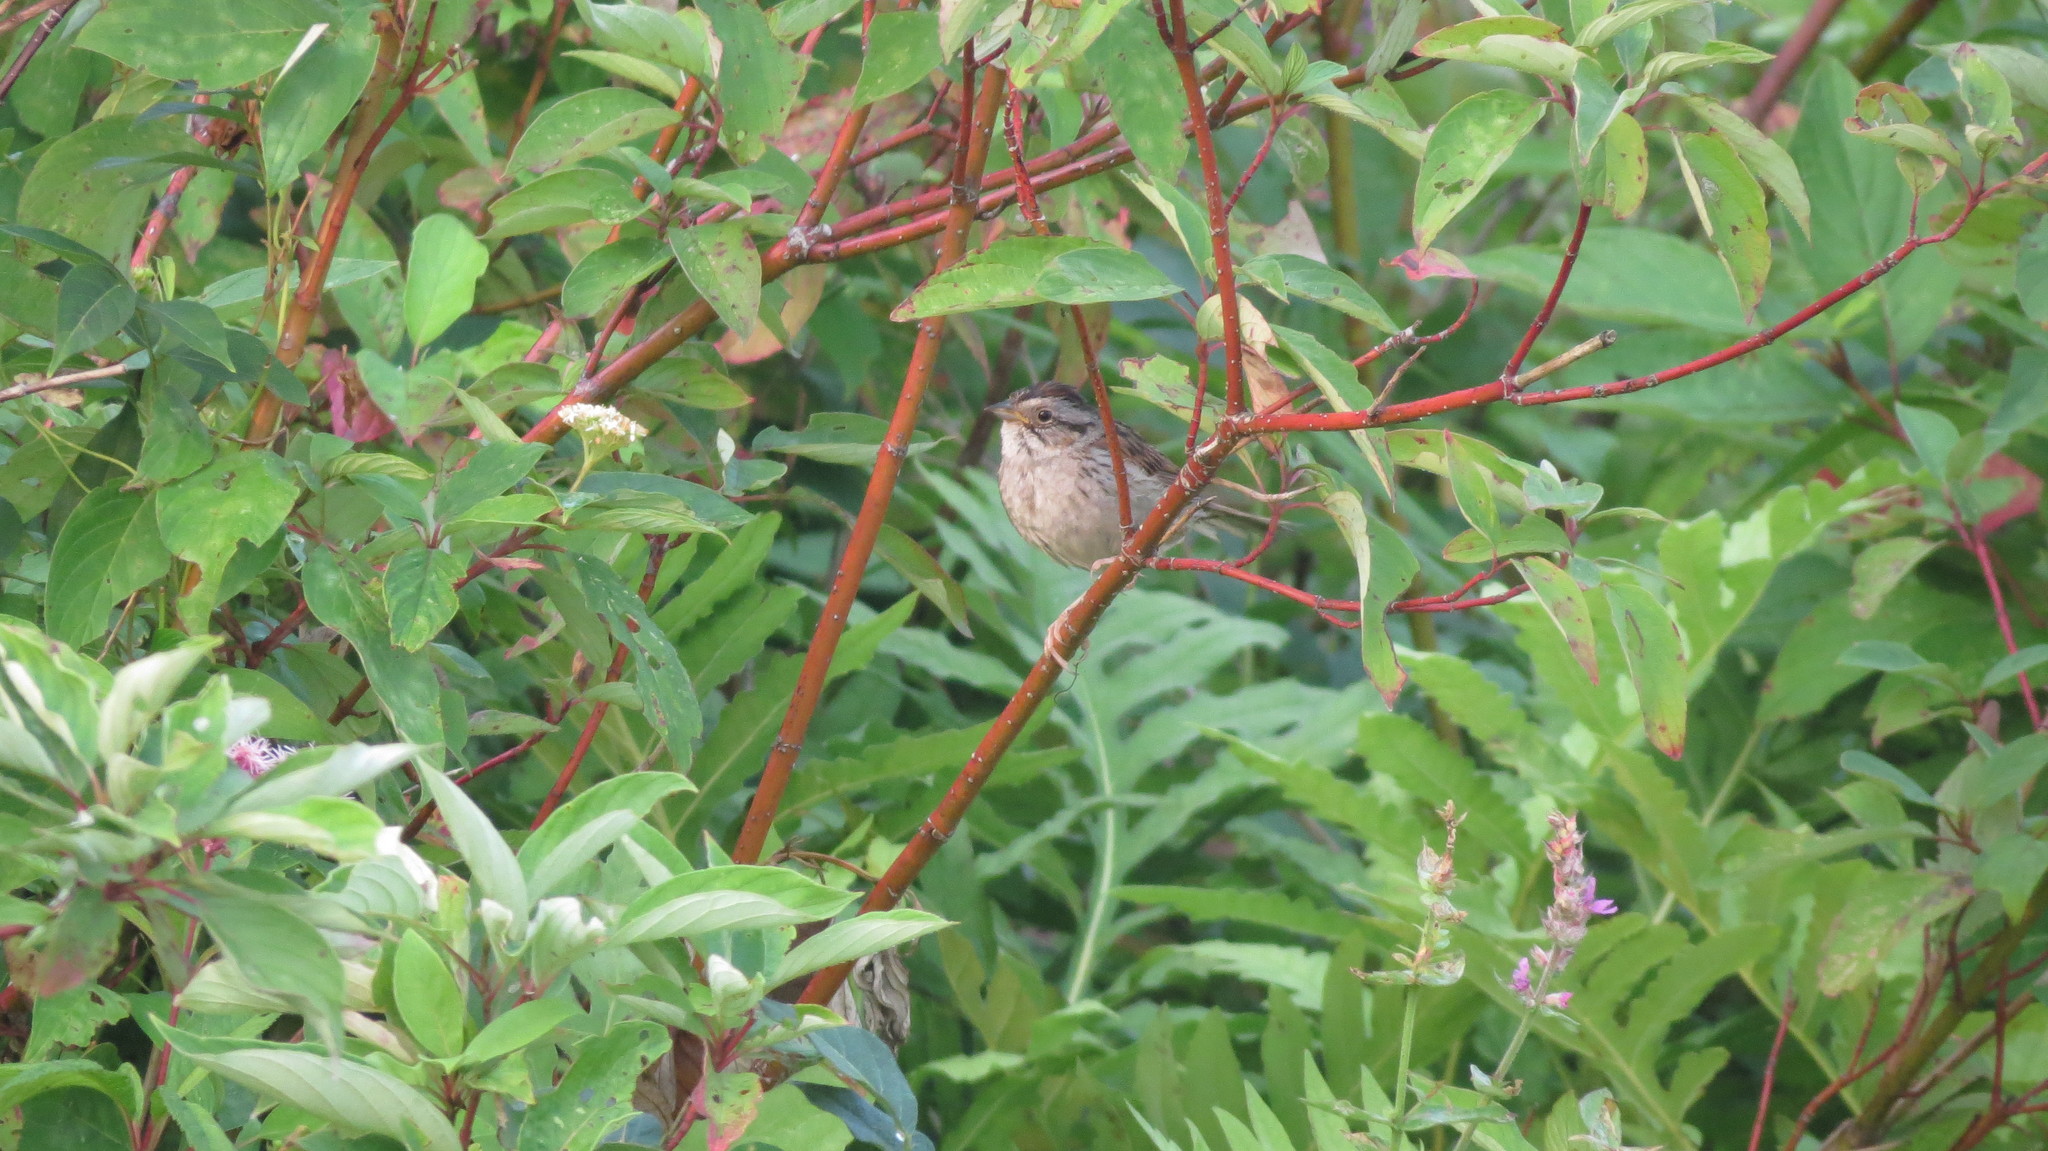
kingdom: Animalia
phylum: Chordata
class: Aves
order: Passeriformes
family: Passerellidae
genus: Melospiza
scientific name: Melospiza georgiana
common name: Swamp sparrow
